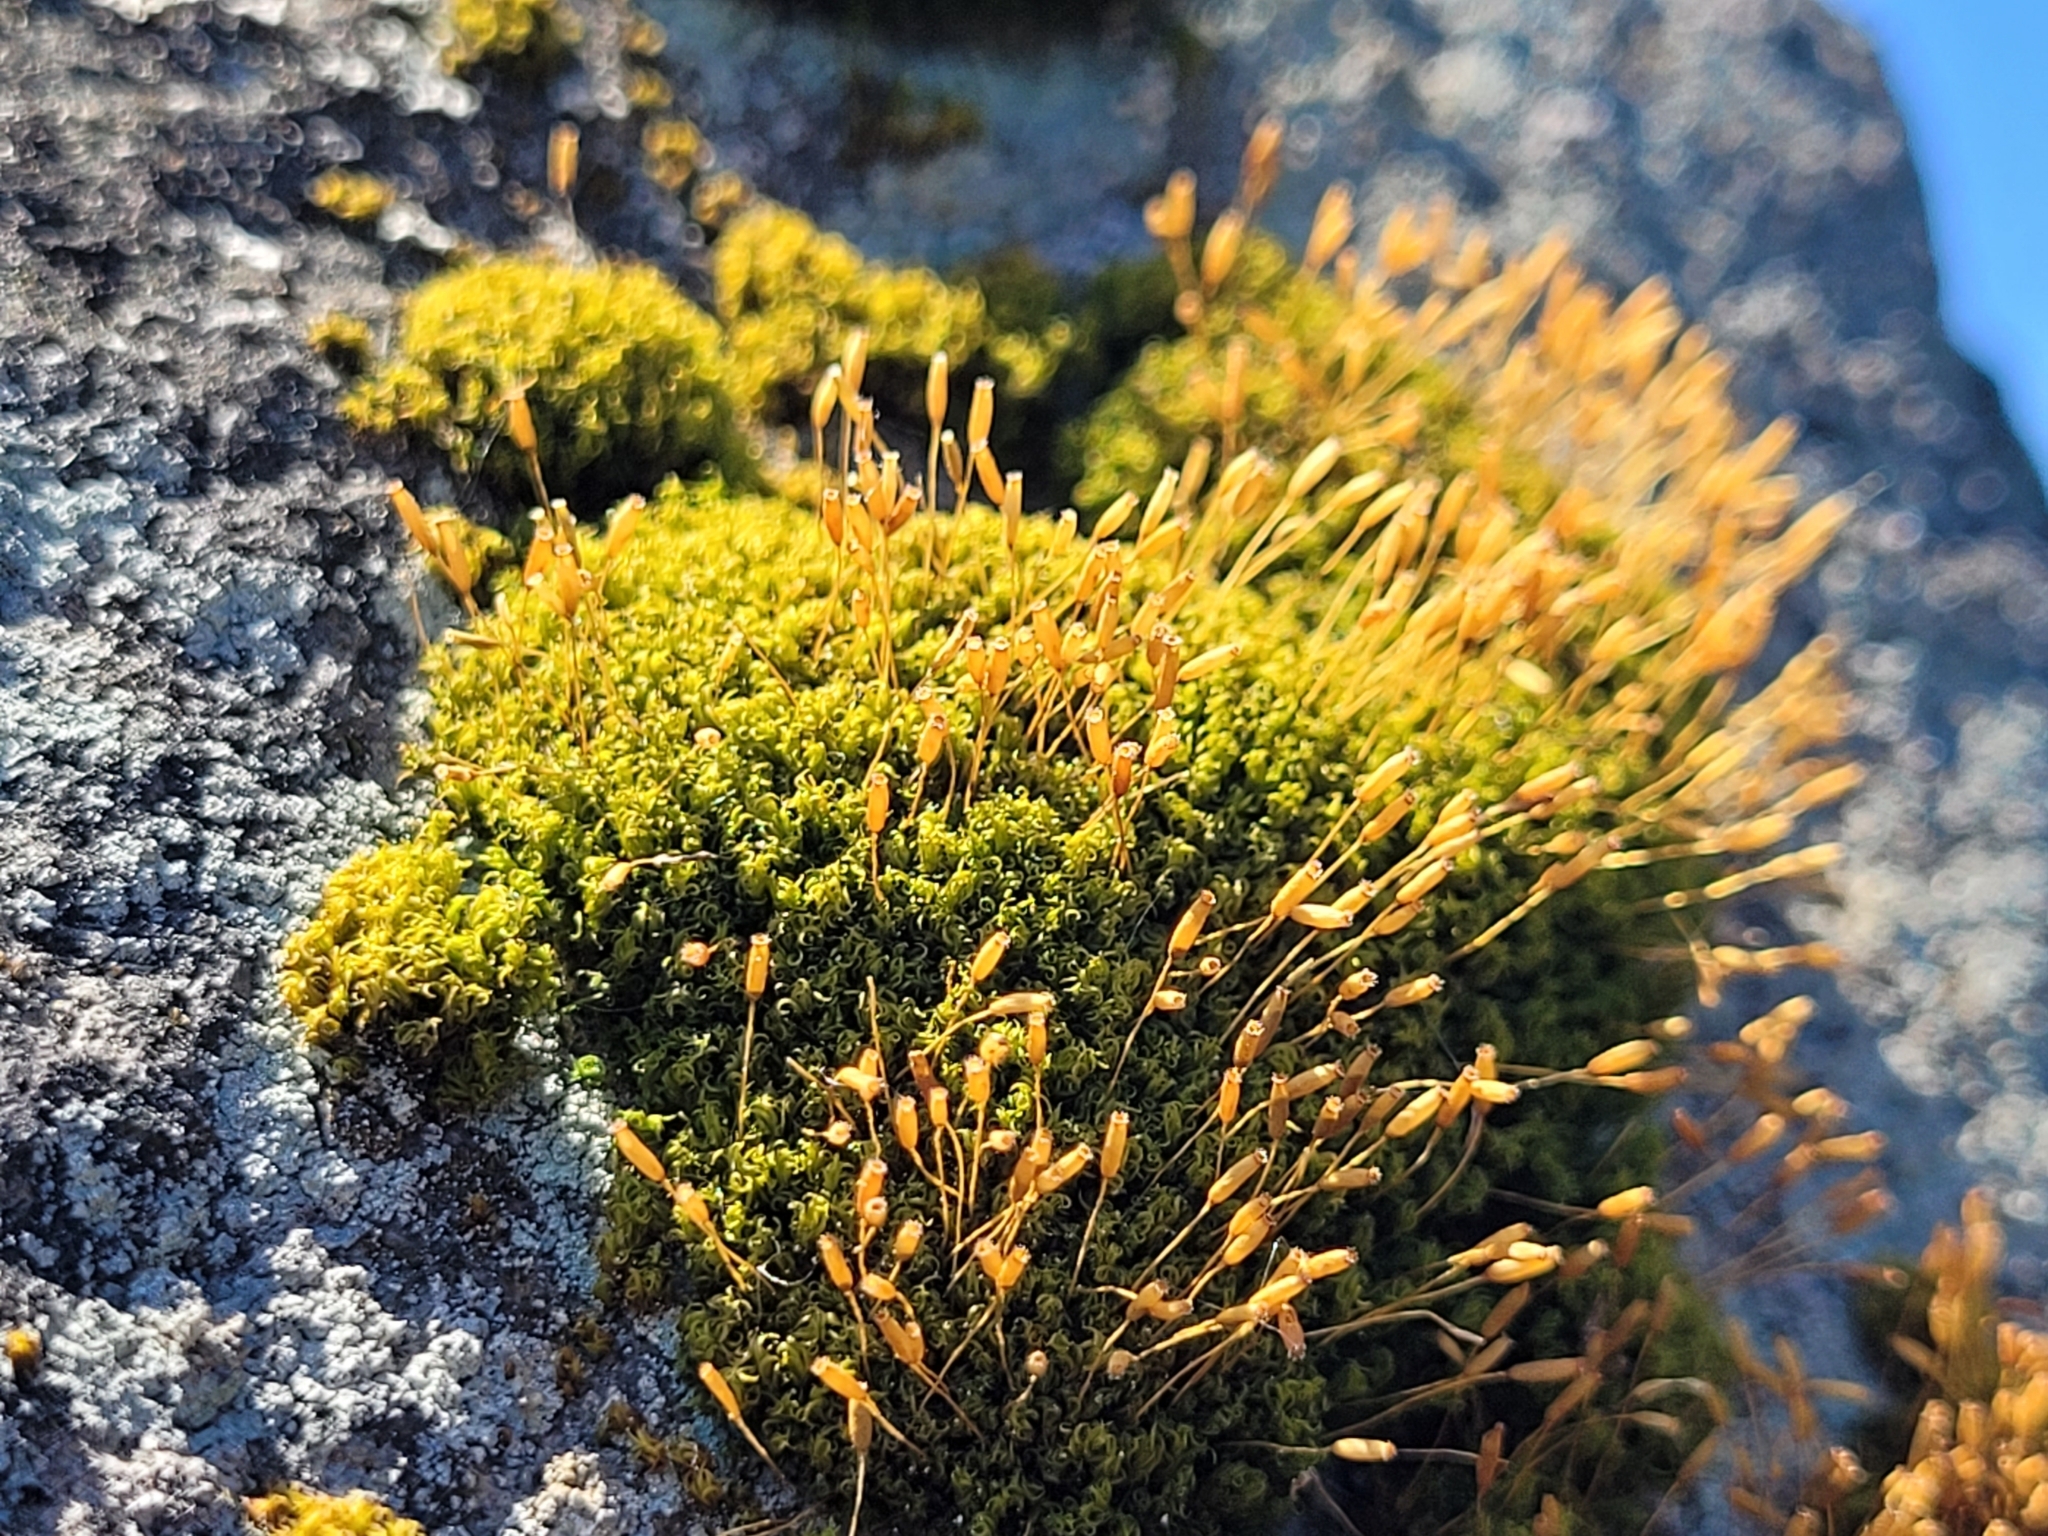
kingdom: Plantae
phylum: Bryophyta
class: Bryopsida
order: Dicranales
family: Rhabdoweisiaceae
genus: Dicranoweisia
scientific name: Dicranoweisia cirrata
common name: Common pincushion
